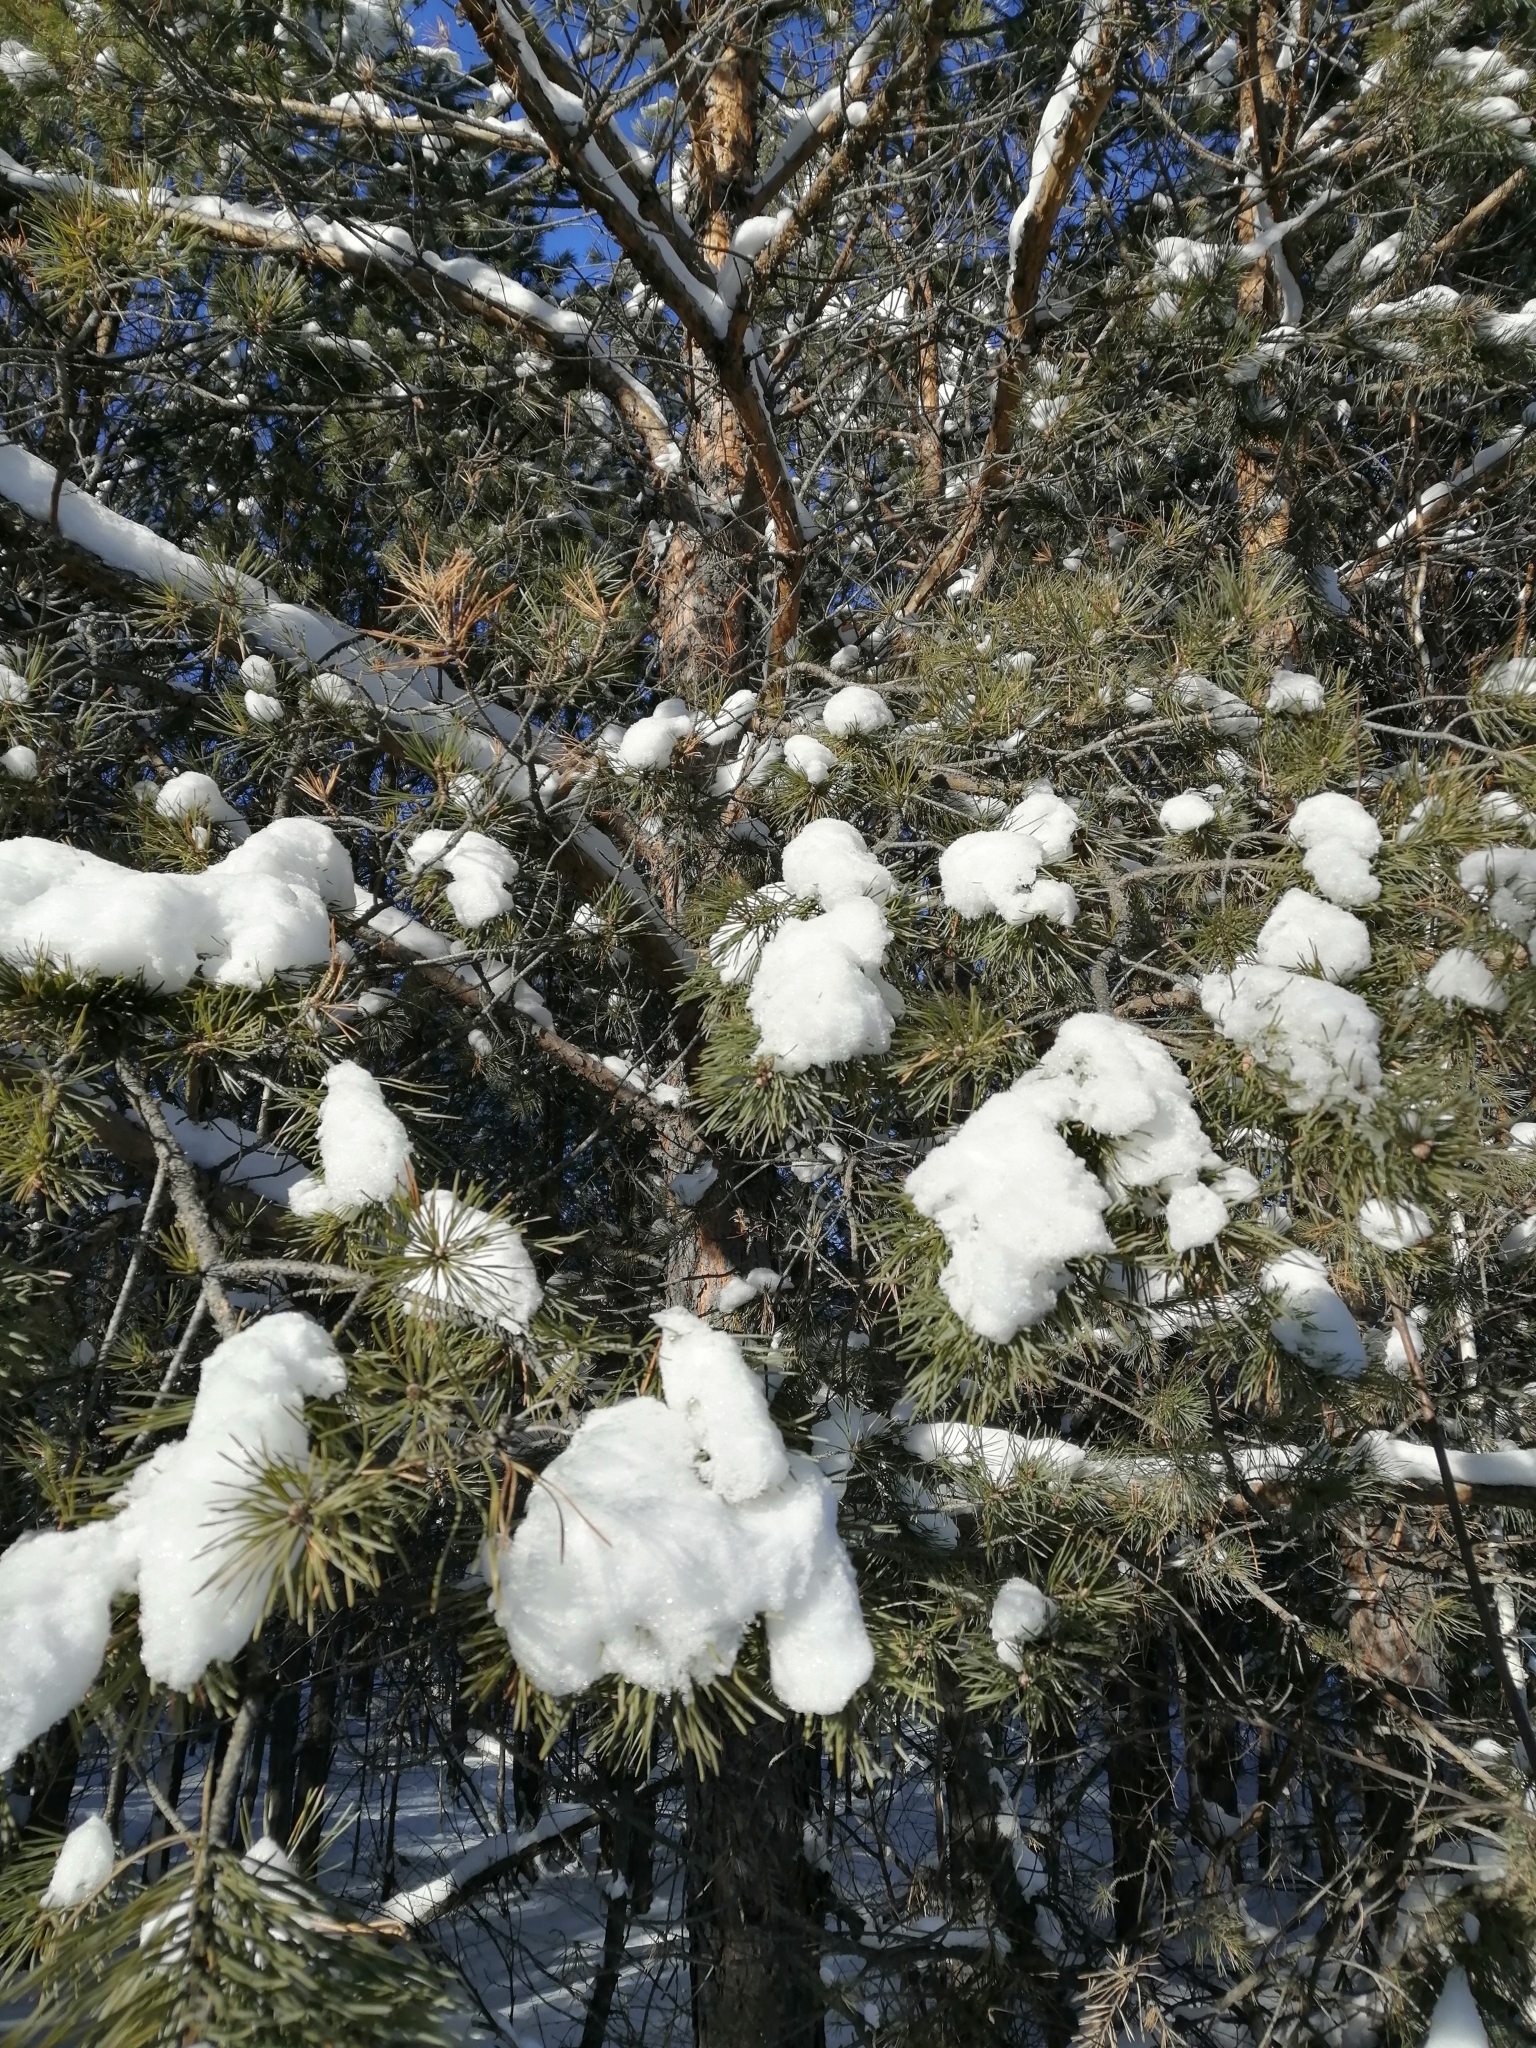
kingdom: Plantae
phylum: Tracheophyta
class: Pinopsida
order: Pinales
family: Pinaceae
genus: Pinus
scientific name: Pinus sylvestris
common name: Scots pine
